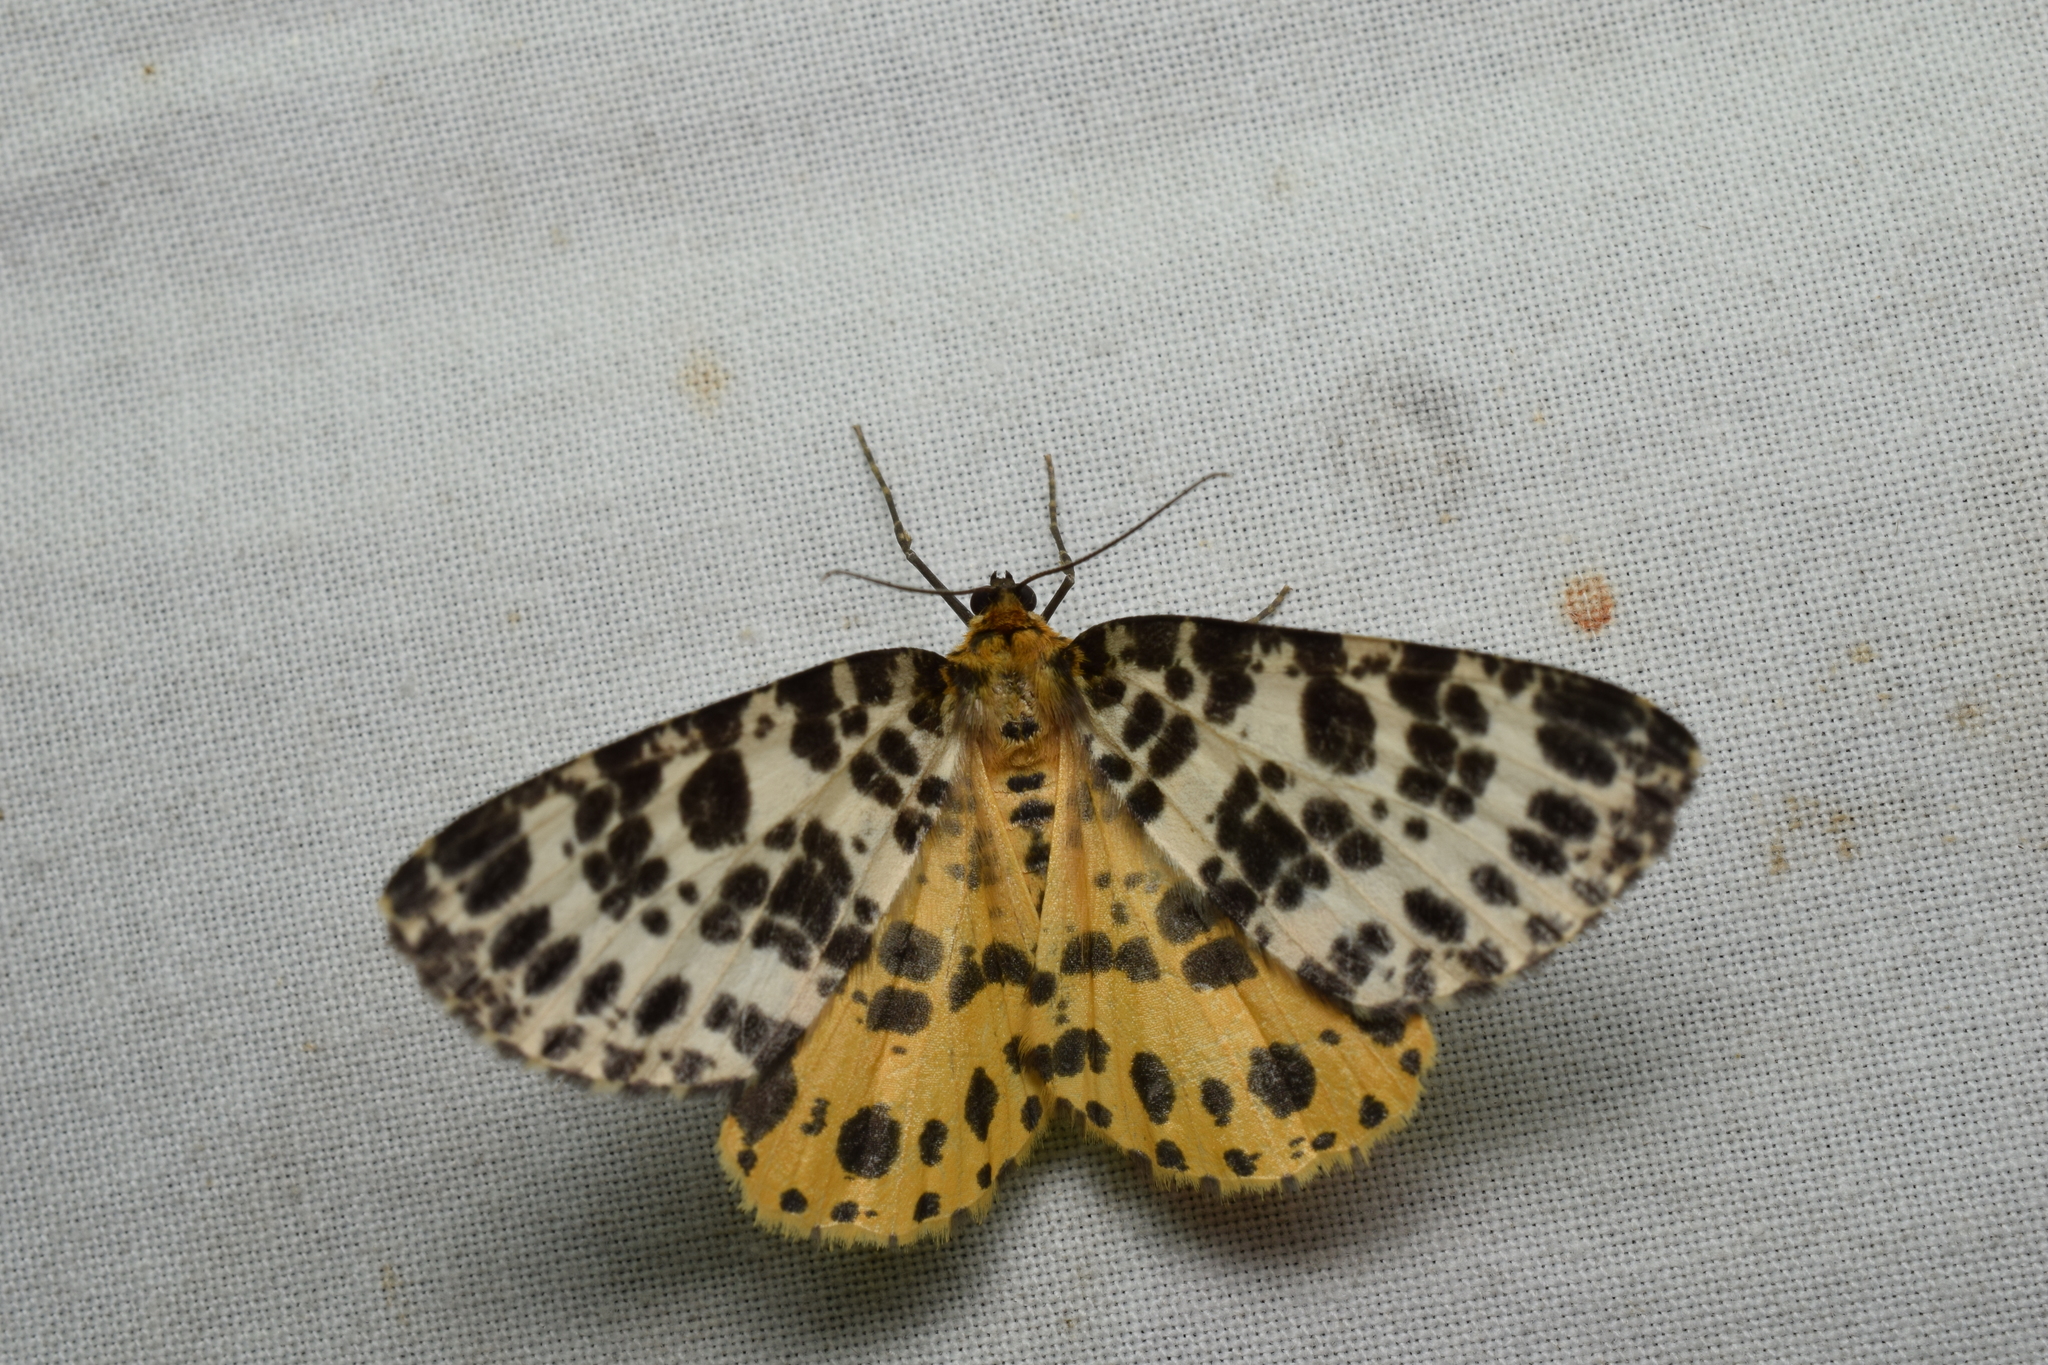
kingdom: Animalia
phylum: Arthropoda
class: Insecta
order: Lepidoptera
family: Geometridae
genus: Arichanna
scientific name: Arichanna melanaria
